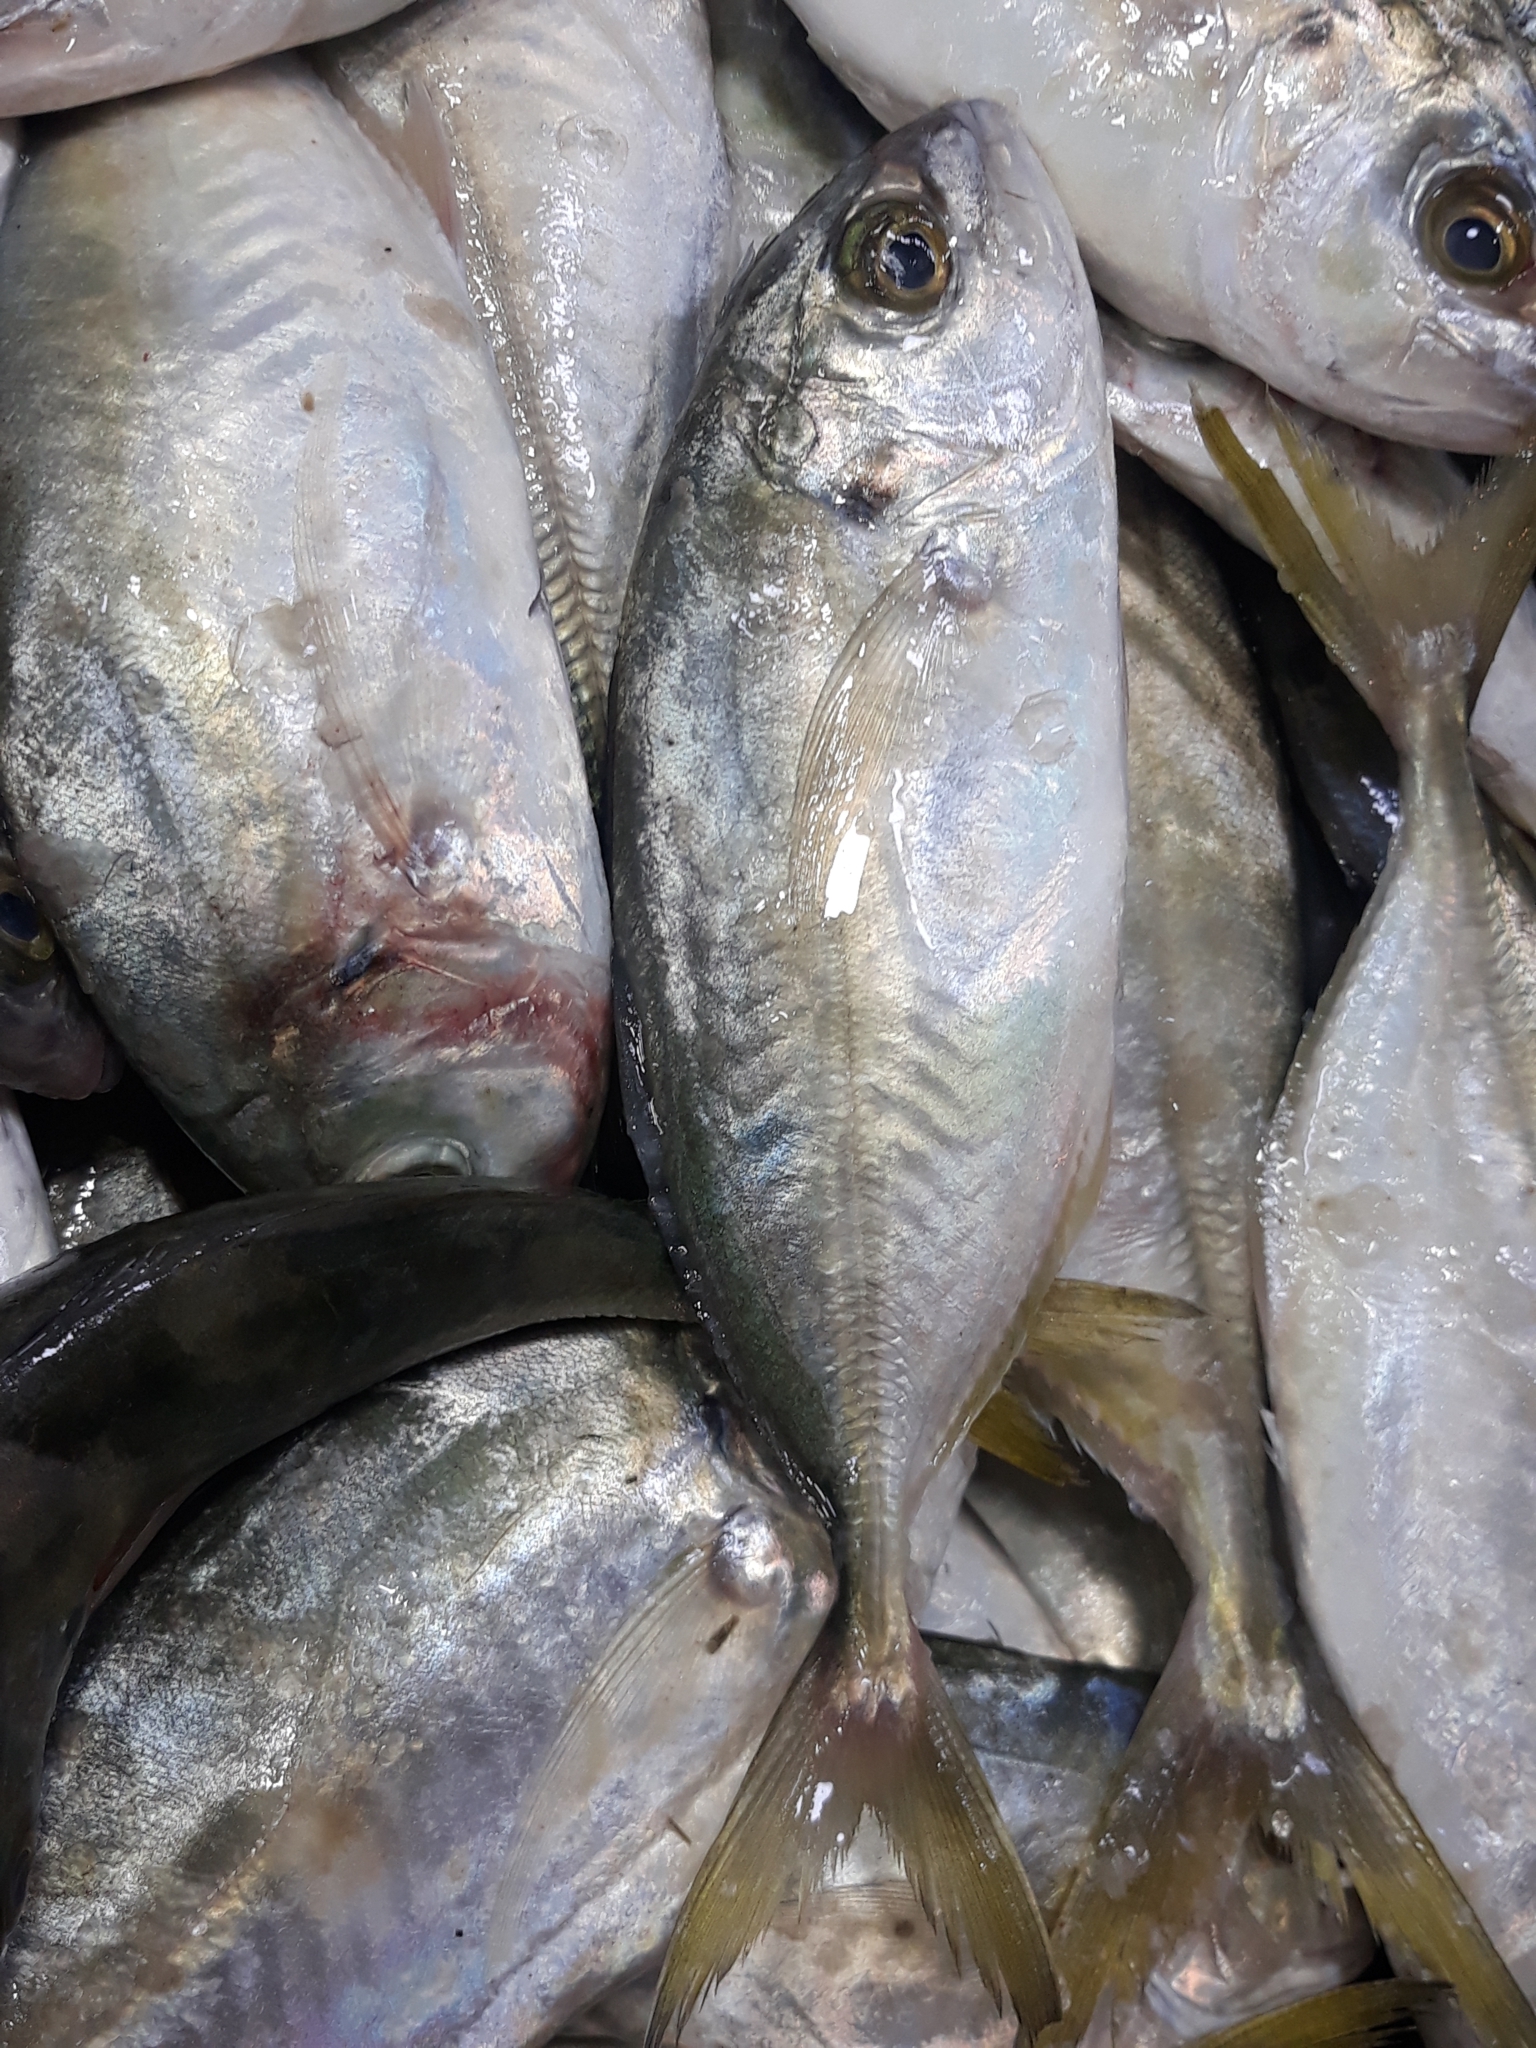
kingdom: Animalia
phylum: Chordata
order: Perciformes
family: Carangidae
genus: Caranx
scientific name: Caranx crysos
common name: Blue runner
